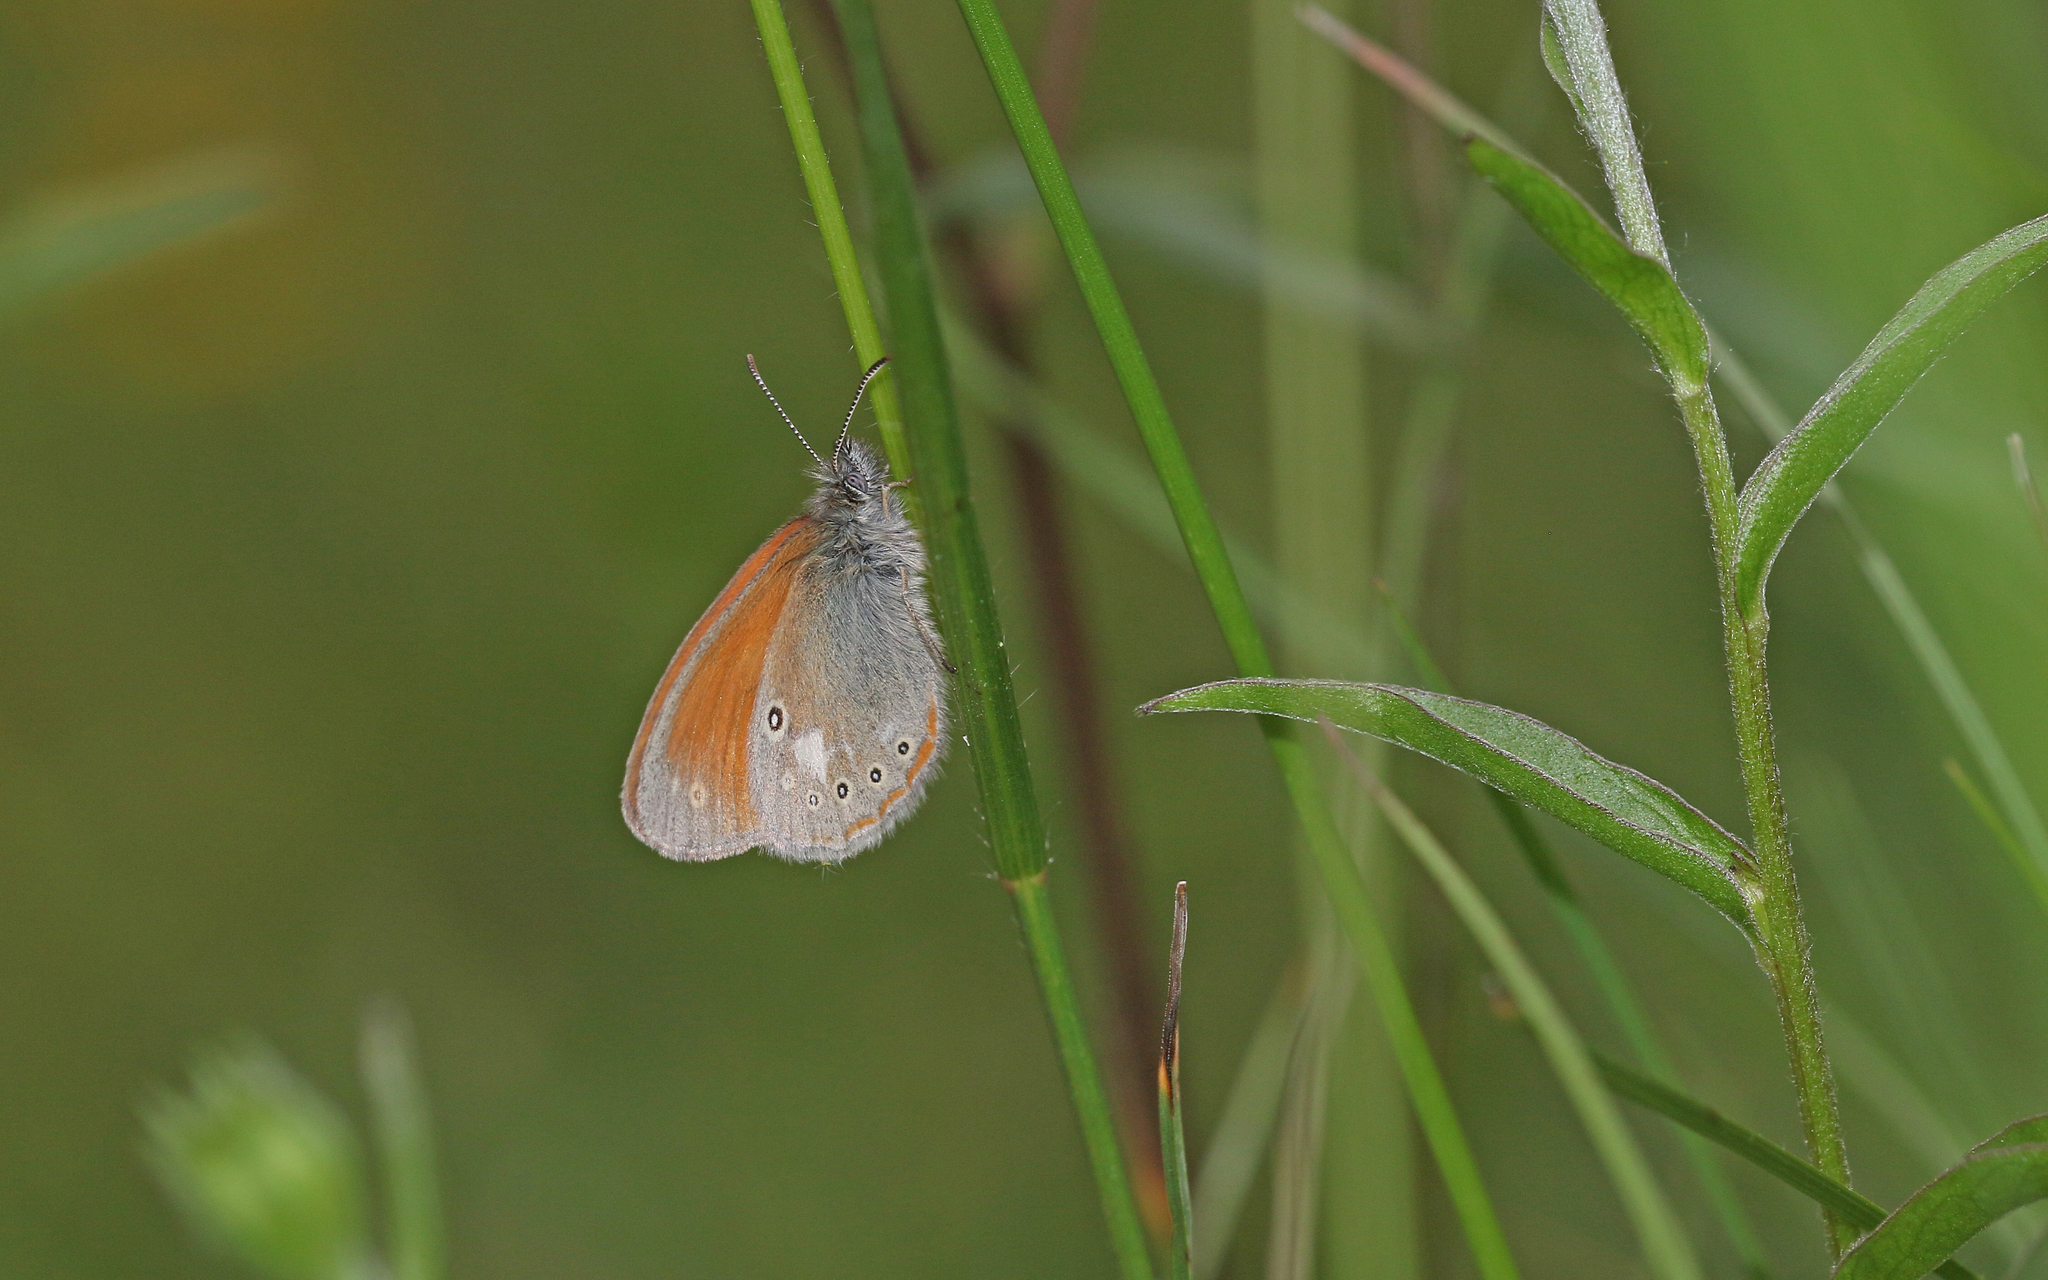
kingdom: Animalia
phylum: Arthropoda
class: Insecta
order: Lepidoptera
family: Nymphalidae
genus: Coenonympha
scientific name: Coenonympha iphis
